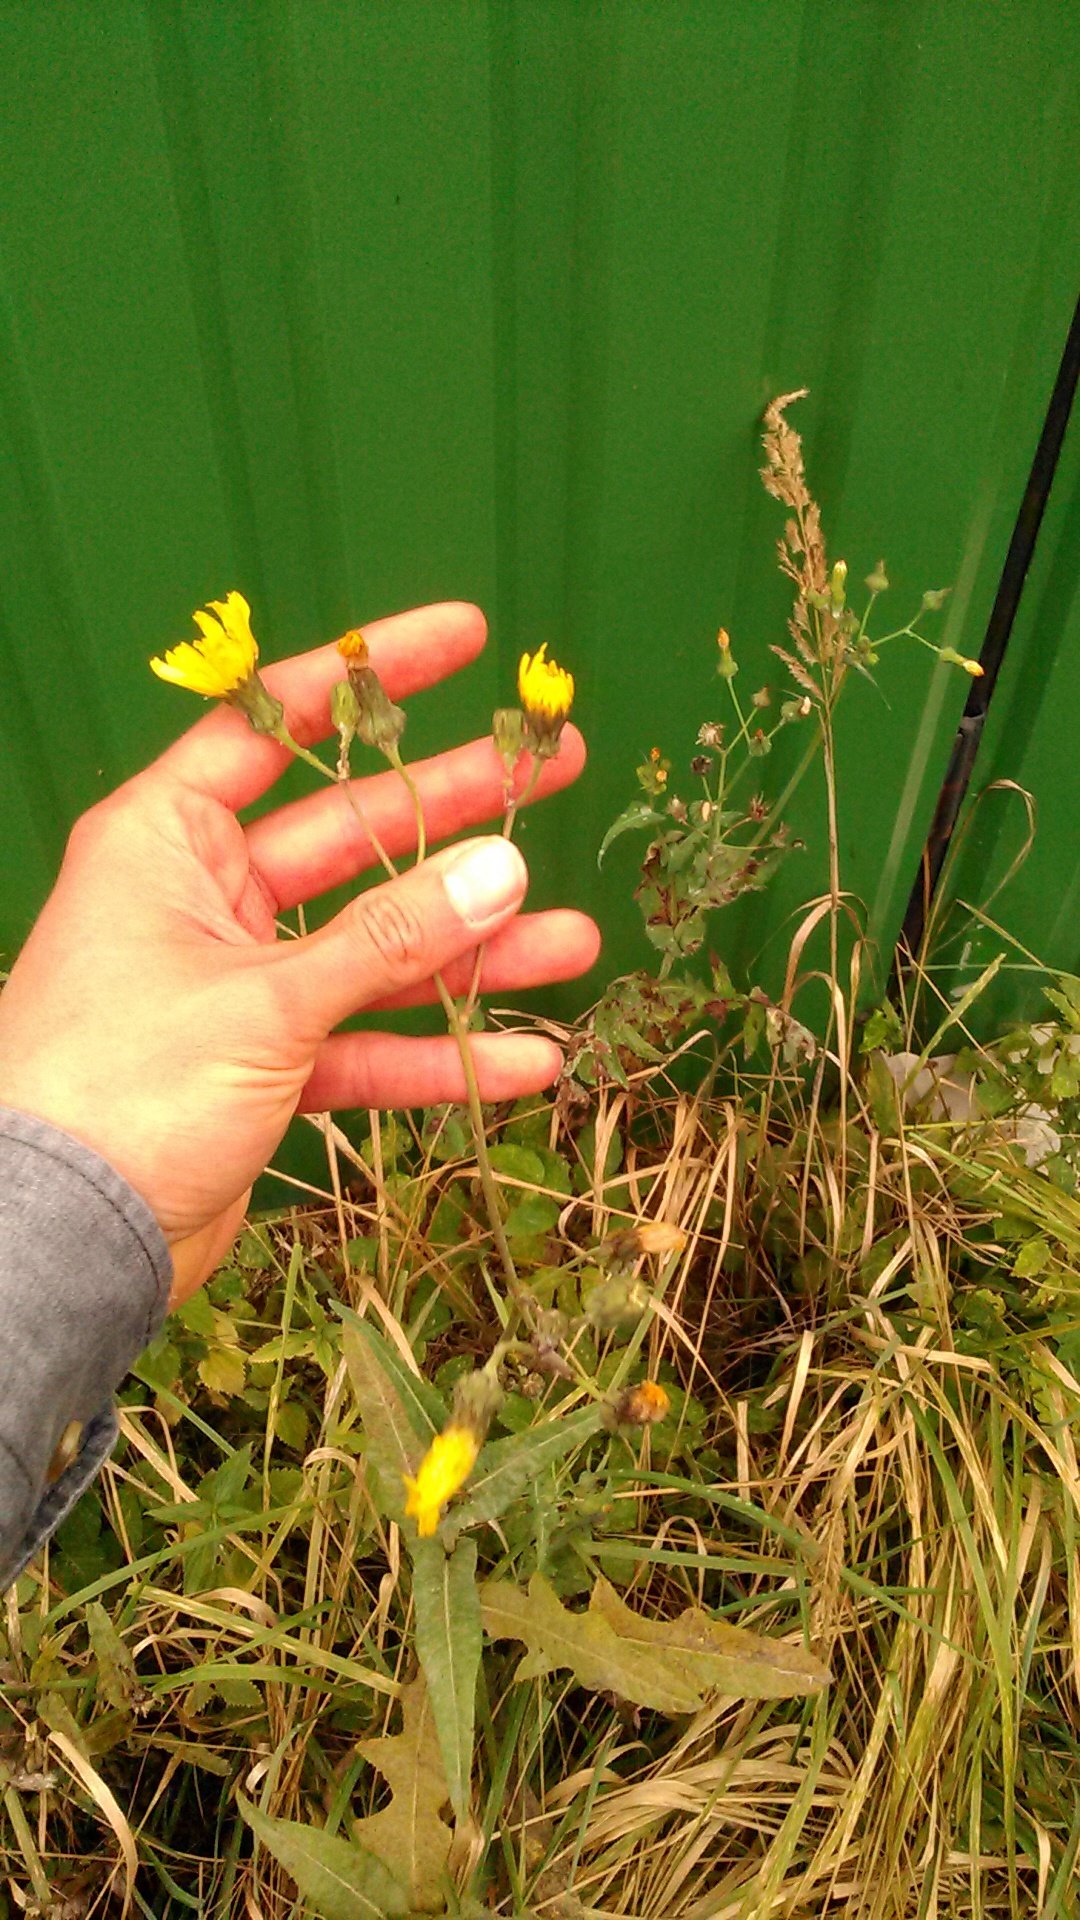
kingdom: Plantae
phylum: Tracheophyta
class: Magnoliopsida
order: Asterales
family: Asteraceae
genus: Sonchus
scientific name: Sonchus arvensis
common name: Perennial sow-thistle
